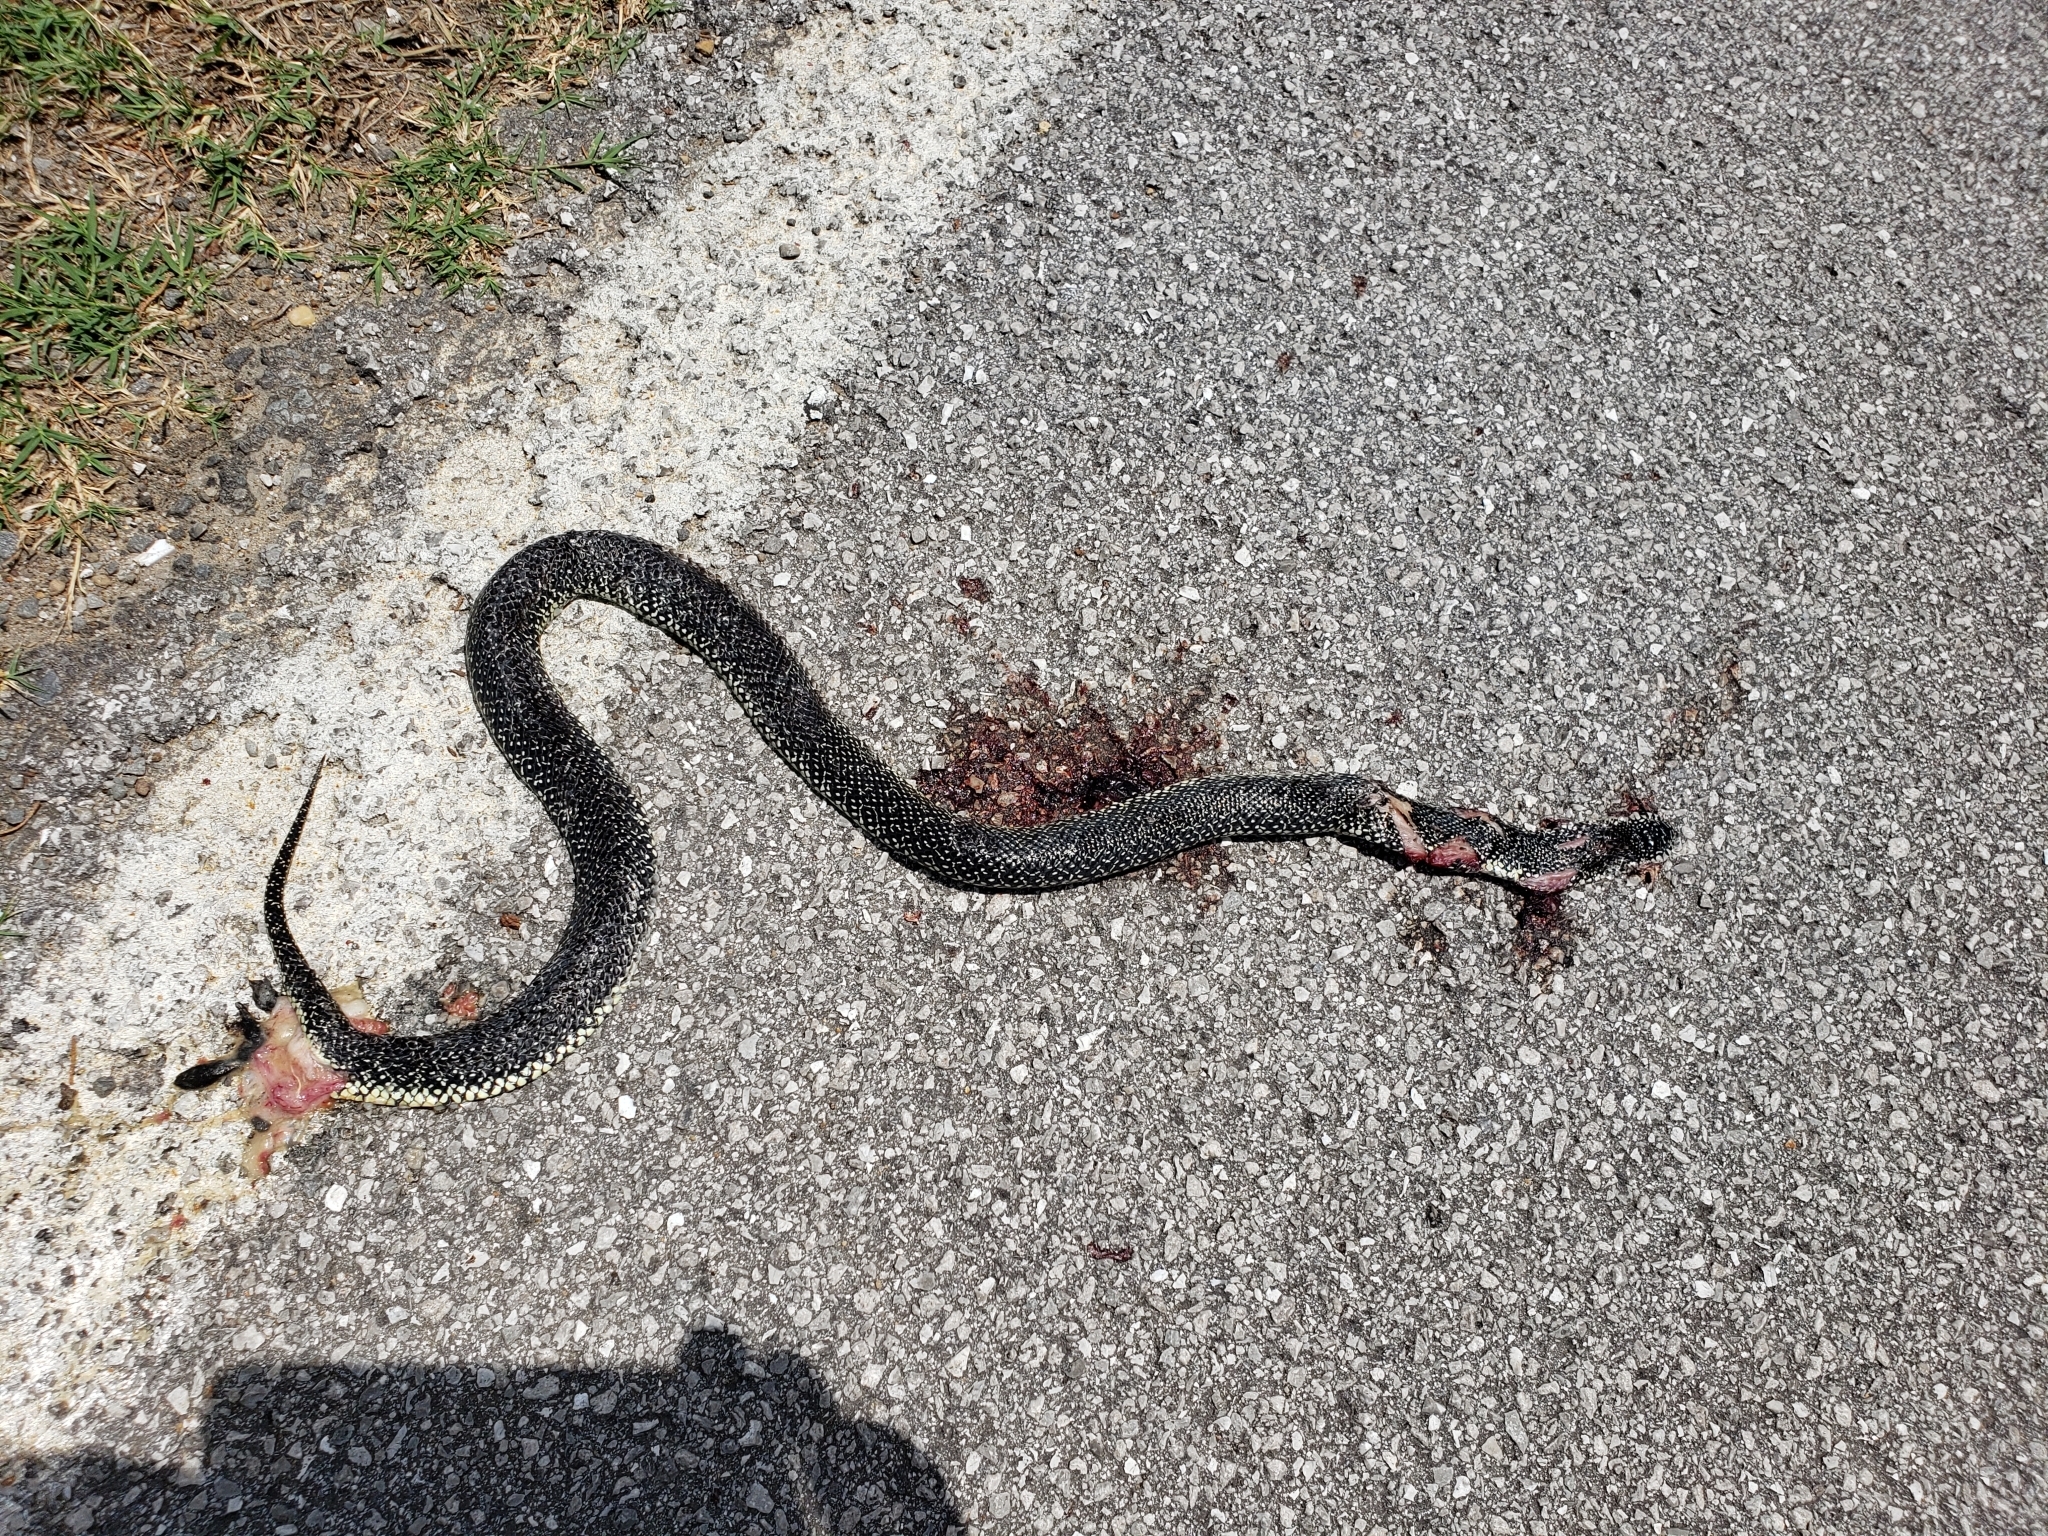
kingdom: Animalia
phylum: Chordata
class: Squamata
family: Colubridae
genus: Lampropeltis
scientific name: Lampropeltis holbrooki
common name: Speckled kingsnake
